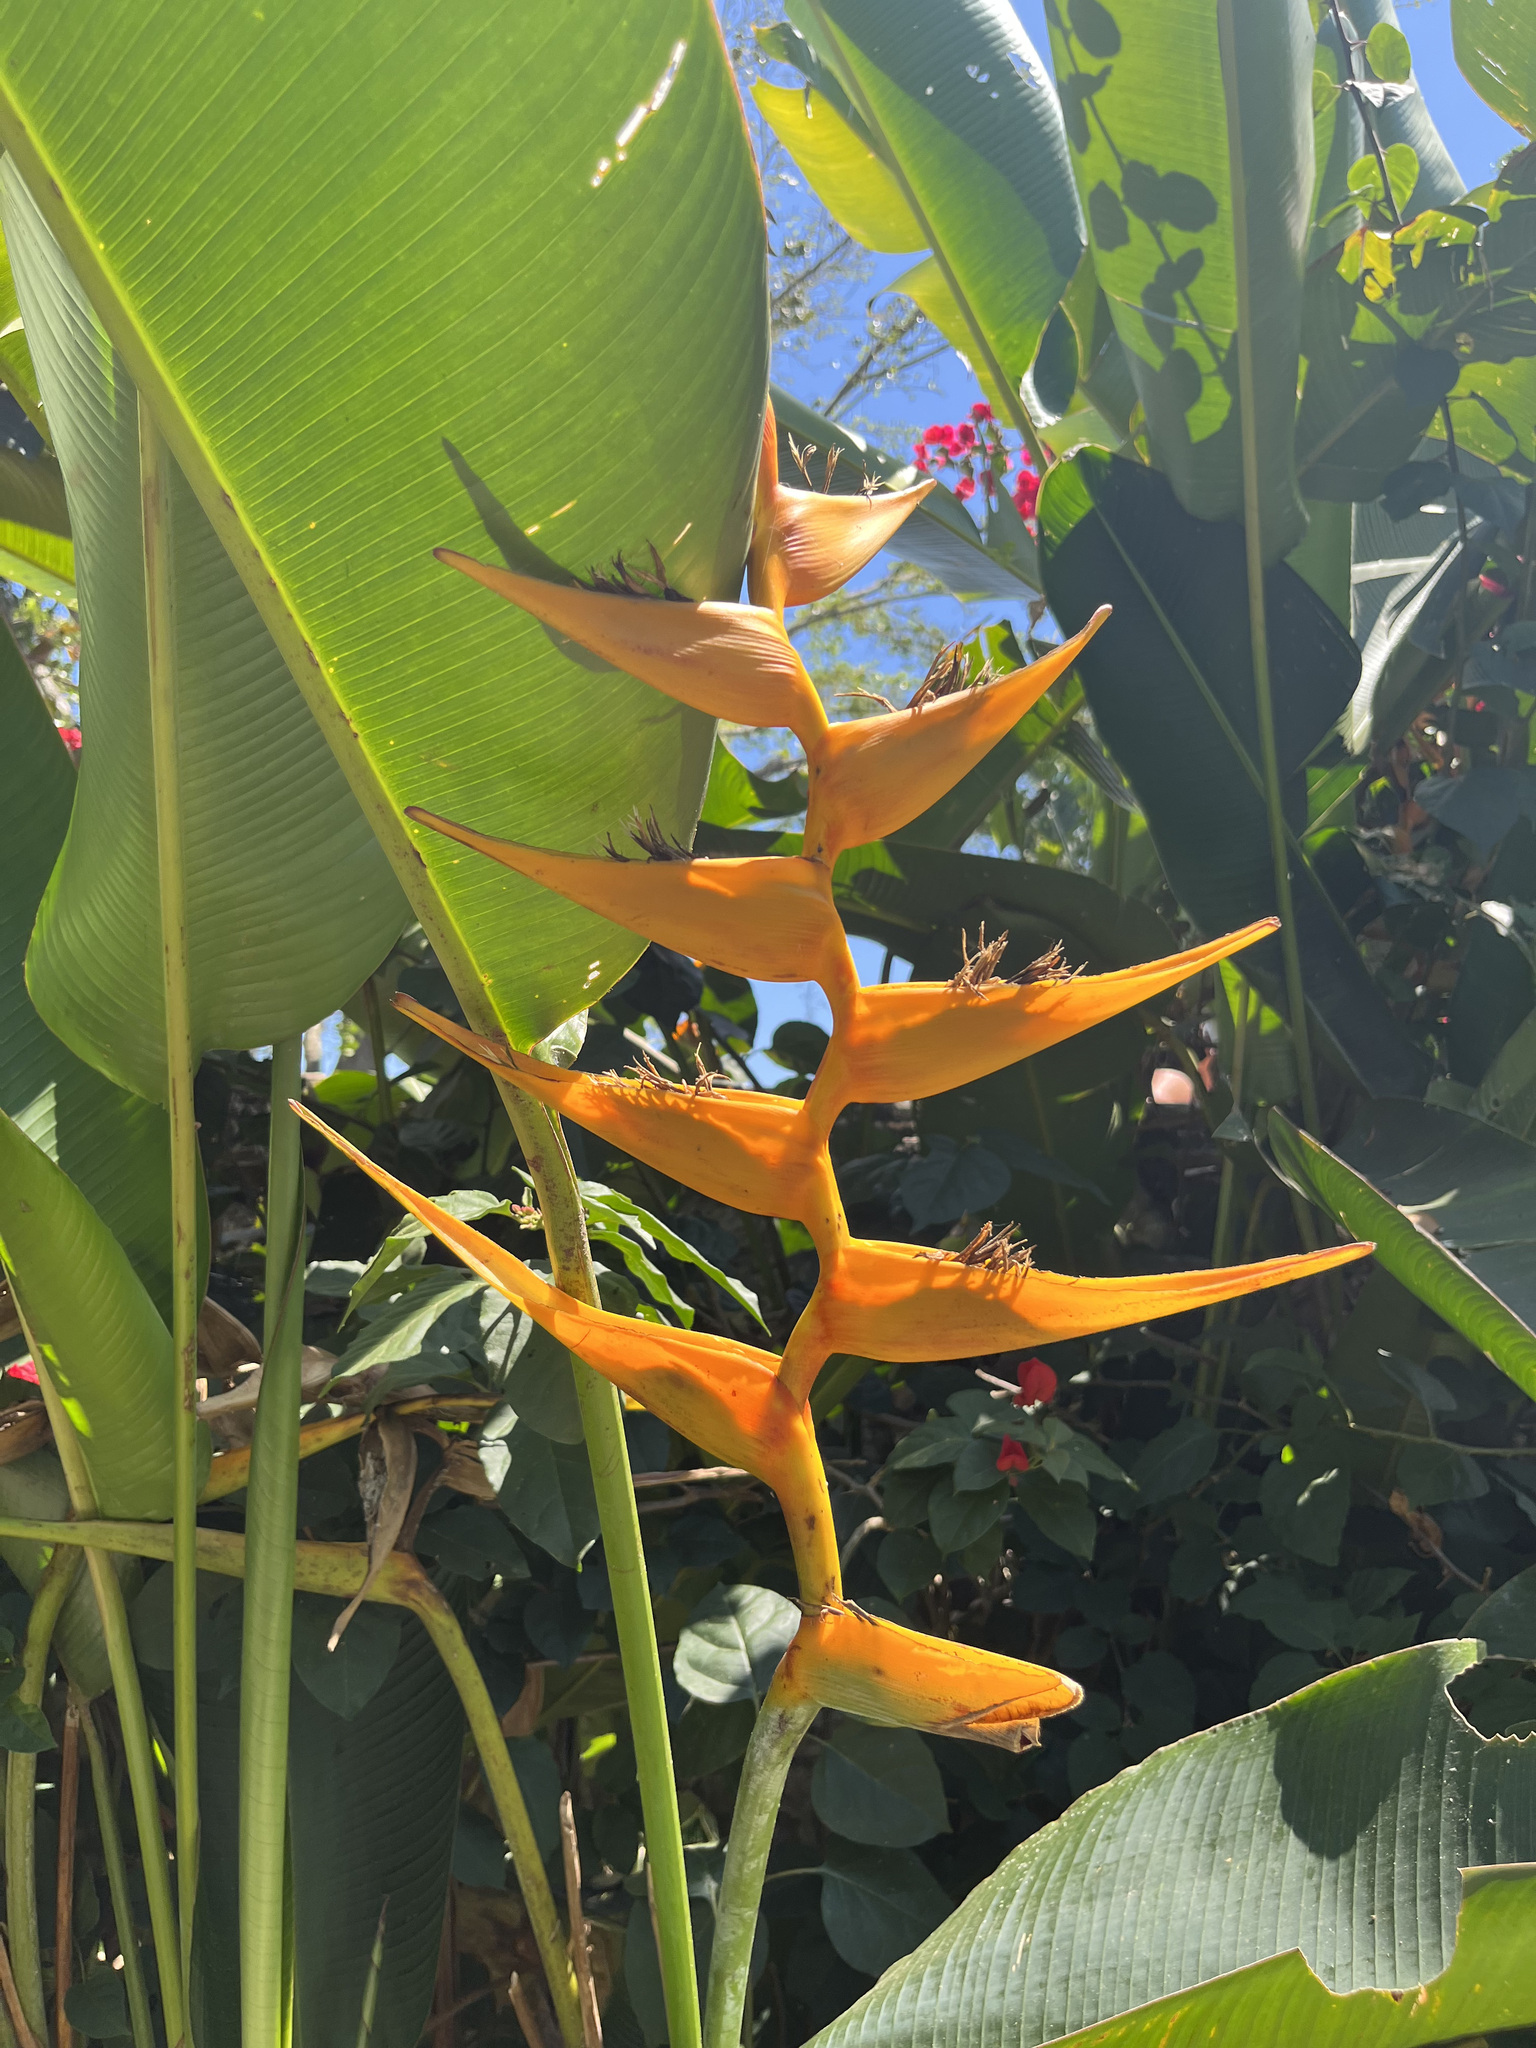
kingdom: Plantae
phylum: Tracheophyta
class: Liliopsida
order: Zingiberales
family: Heliconiaceae
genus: Heliconia
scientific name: Heliconia latispatha
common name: Expanded lobsterclaw
